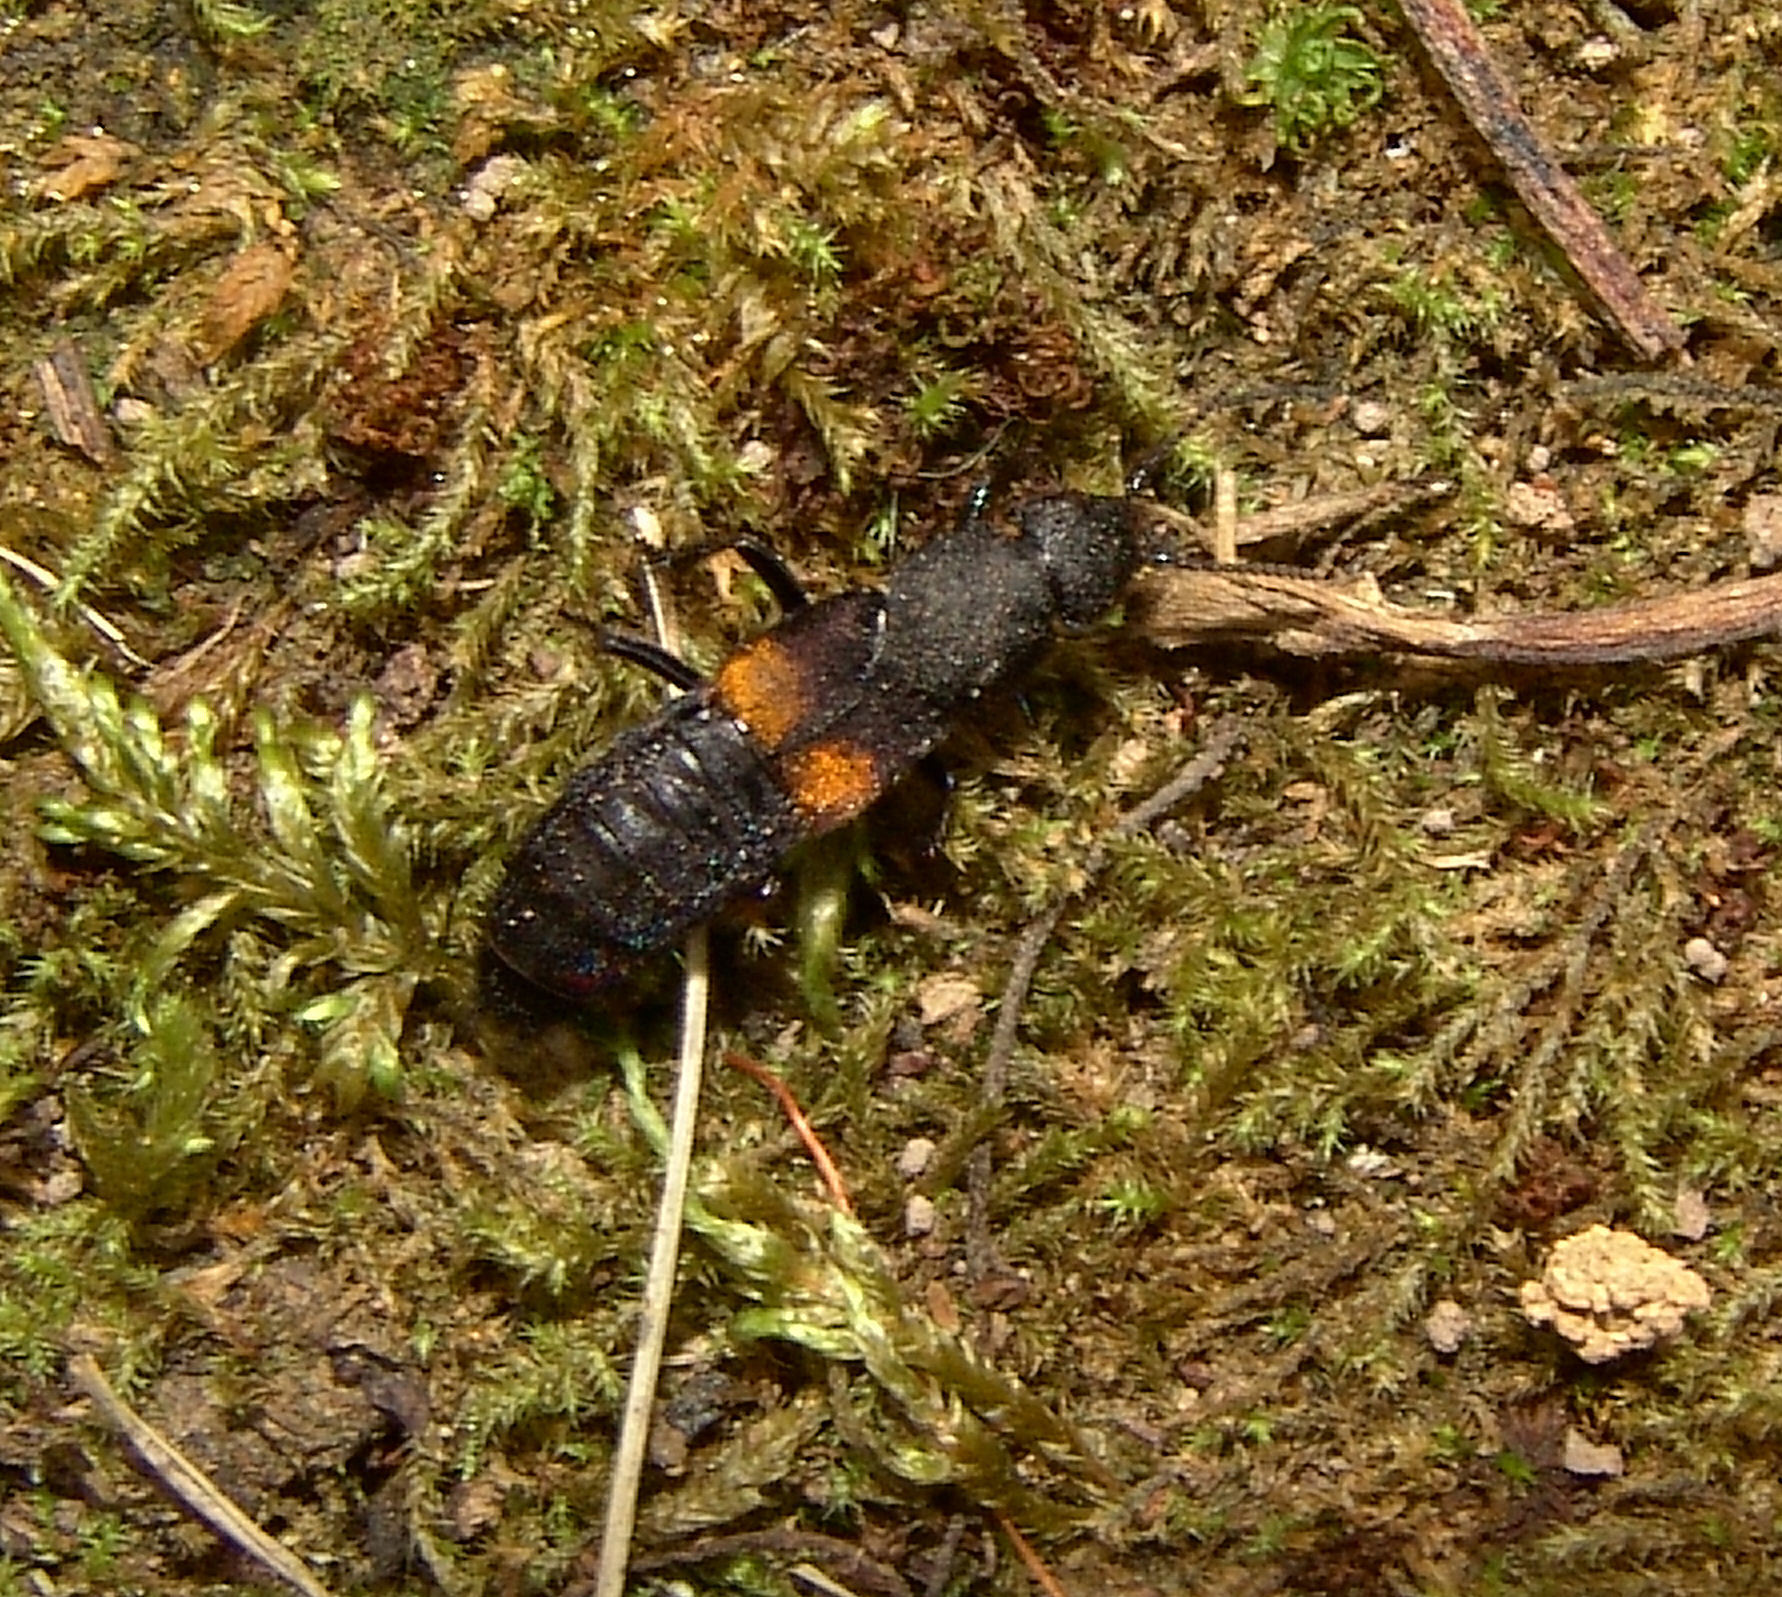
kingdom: Animalia
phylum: Arthropoda
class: Insecta
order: Coleoptera
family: Staphylinidae
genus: Platydracus
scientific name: Platydracus fossator
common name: Red-spotted rove beetle
